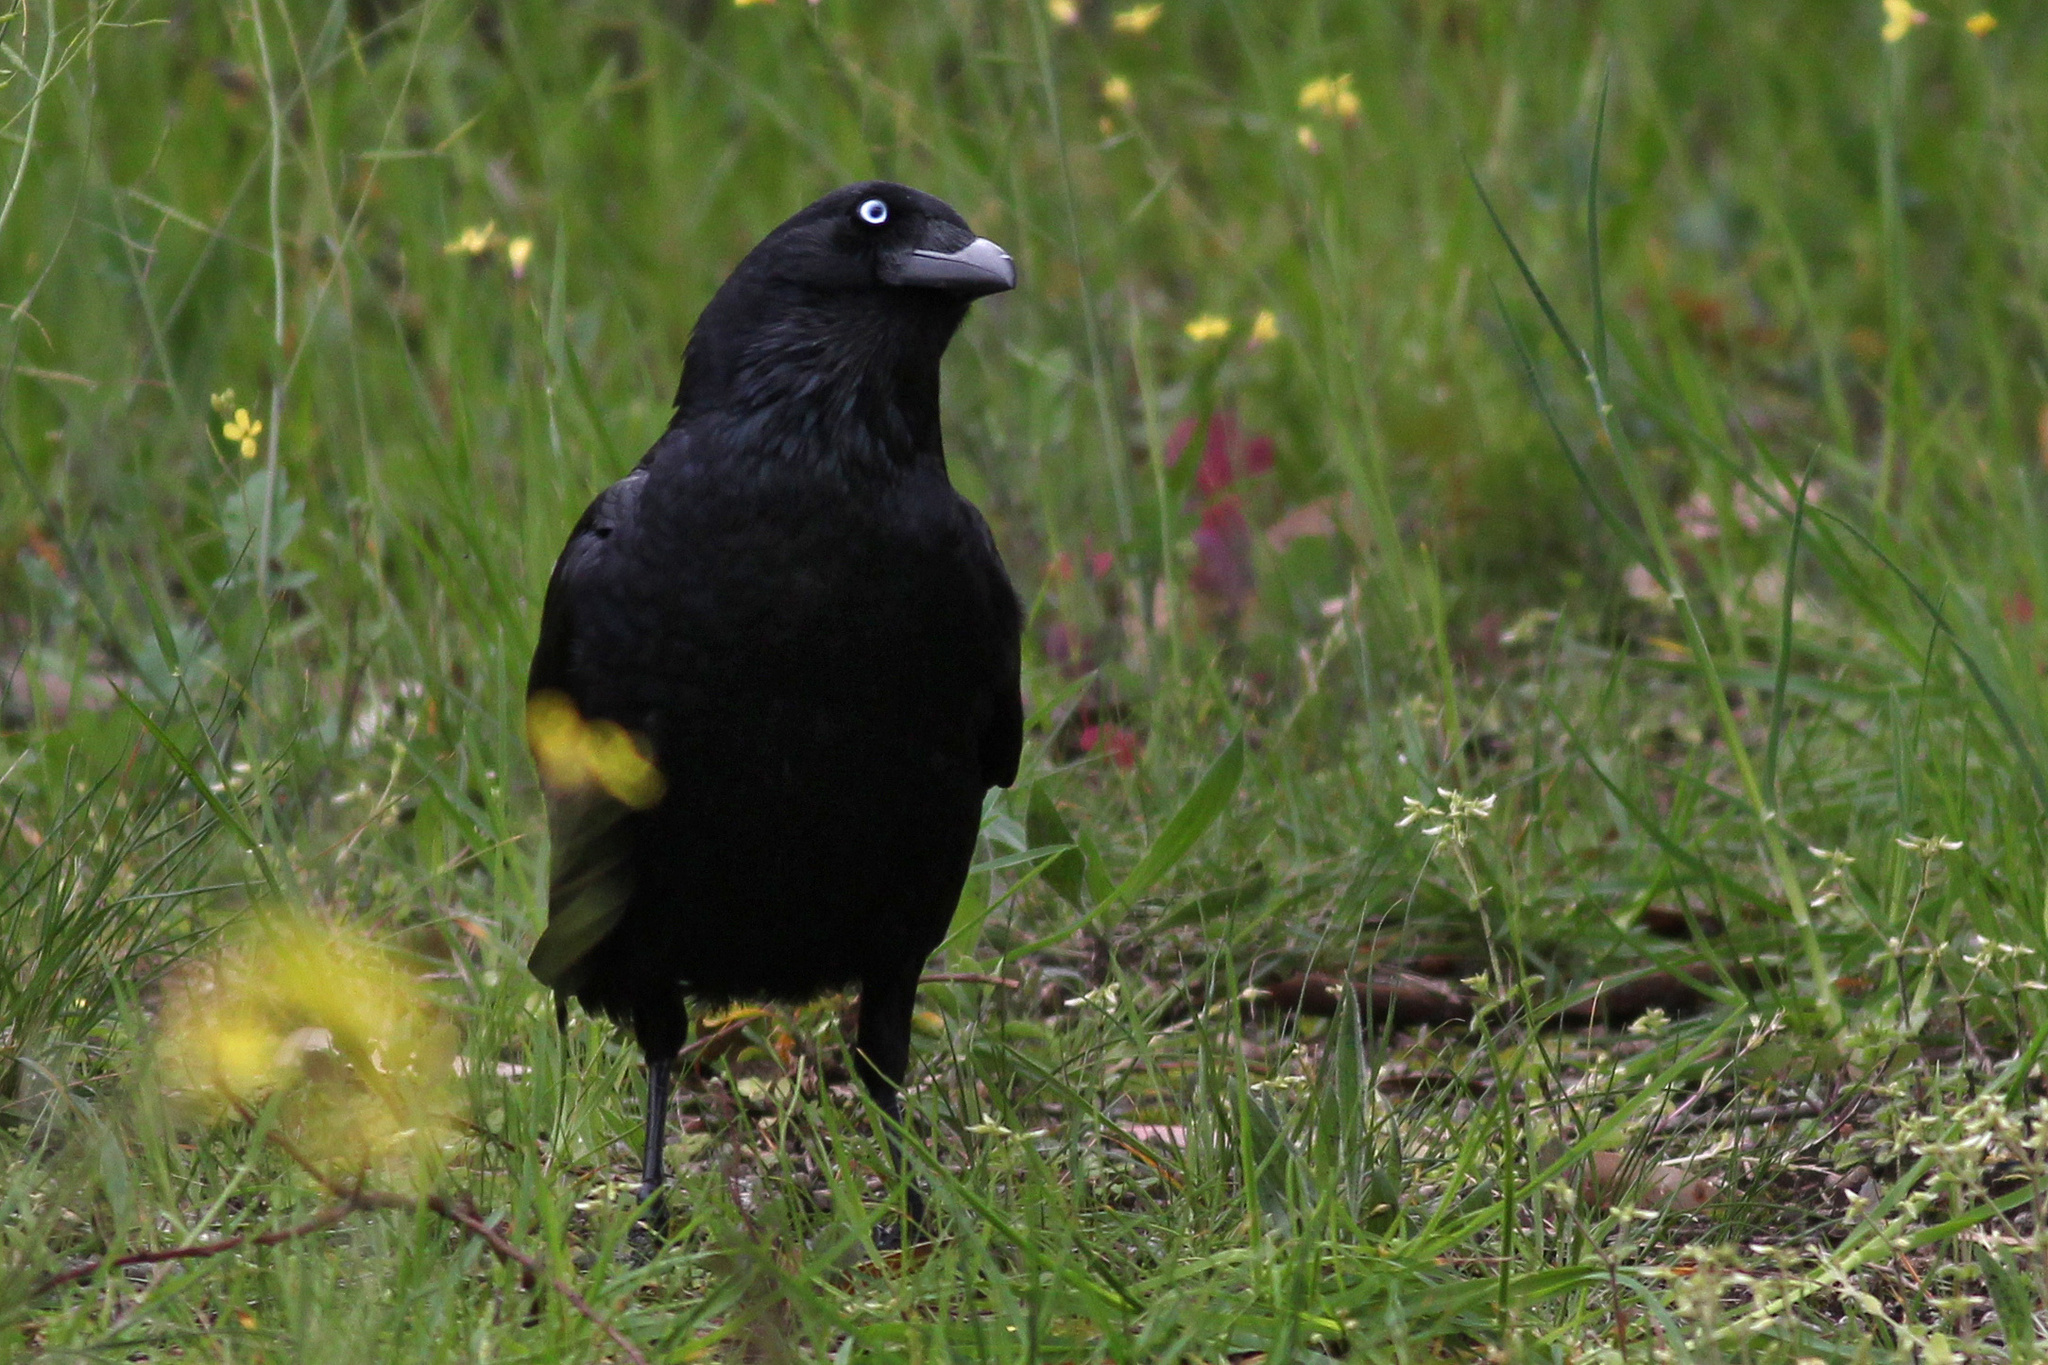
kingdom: Animalia
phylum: Chordata
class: Aves
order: Passeriformes
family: Corvidae
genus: Corvus
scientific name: Corvus mellori
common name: Little raven
